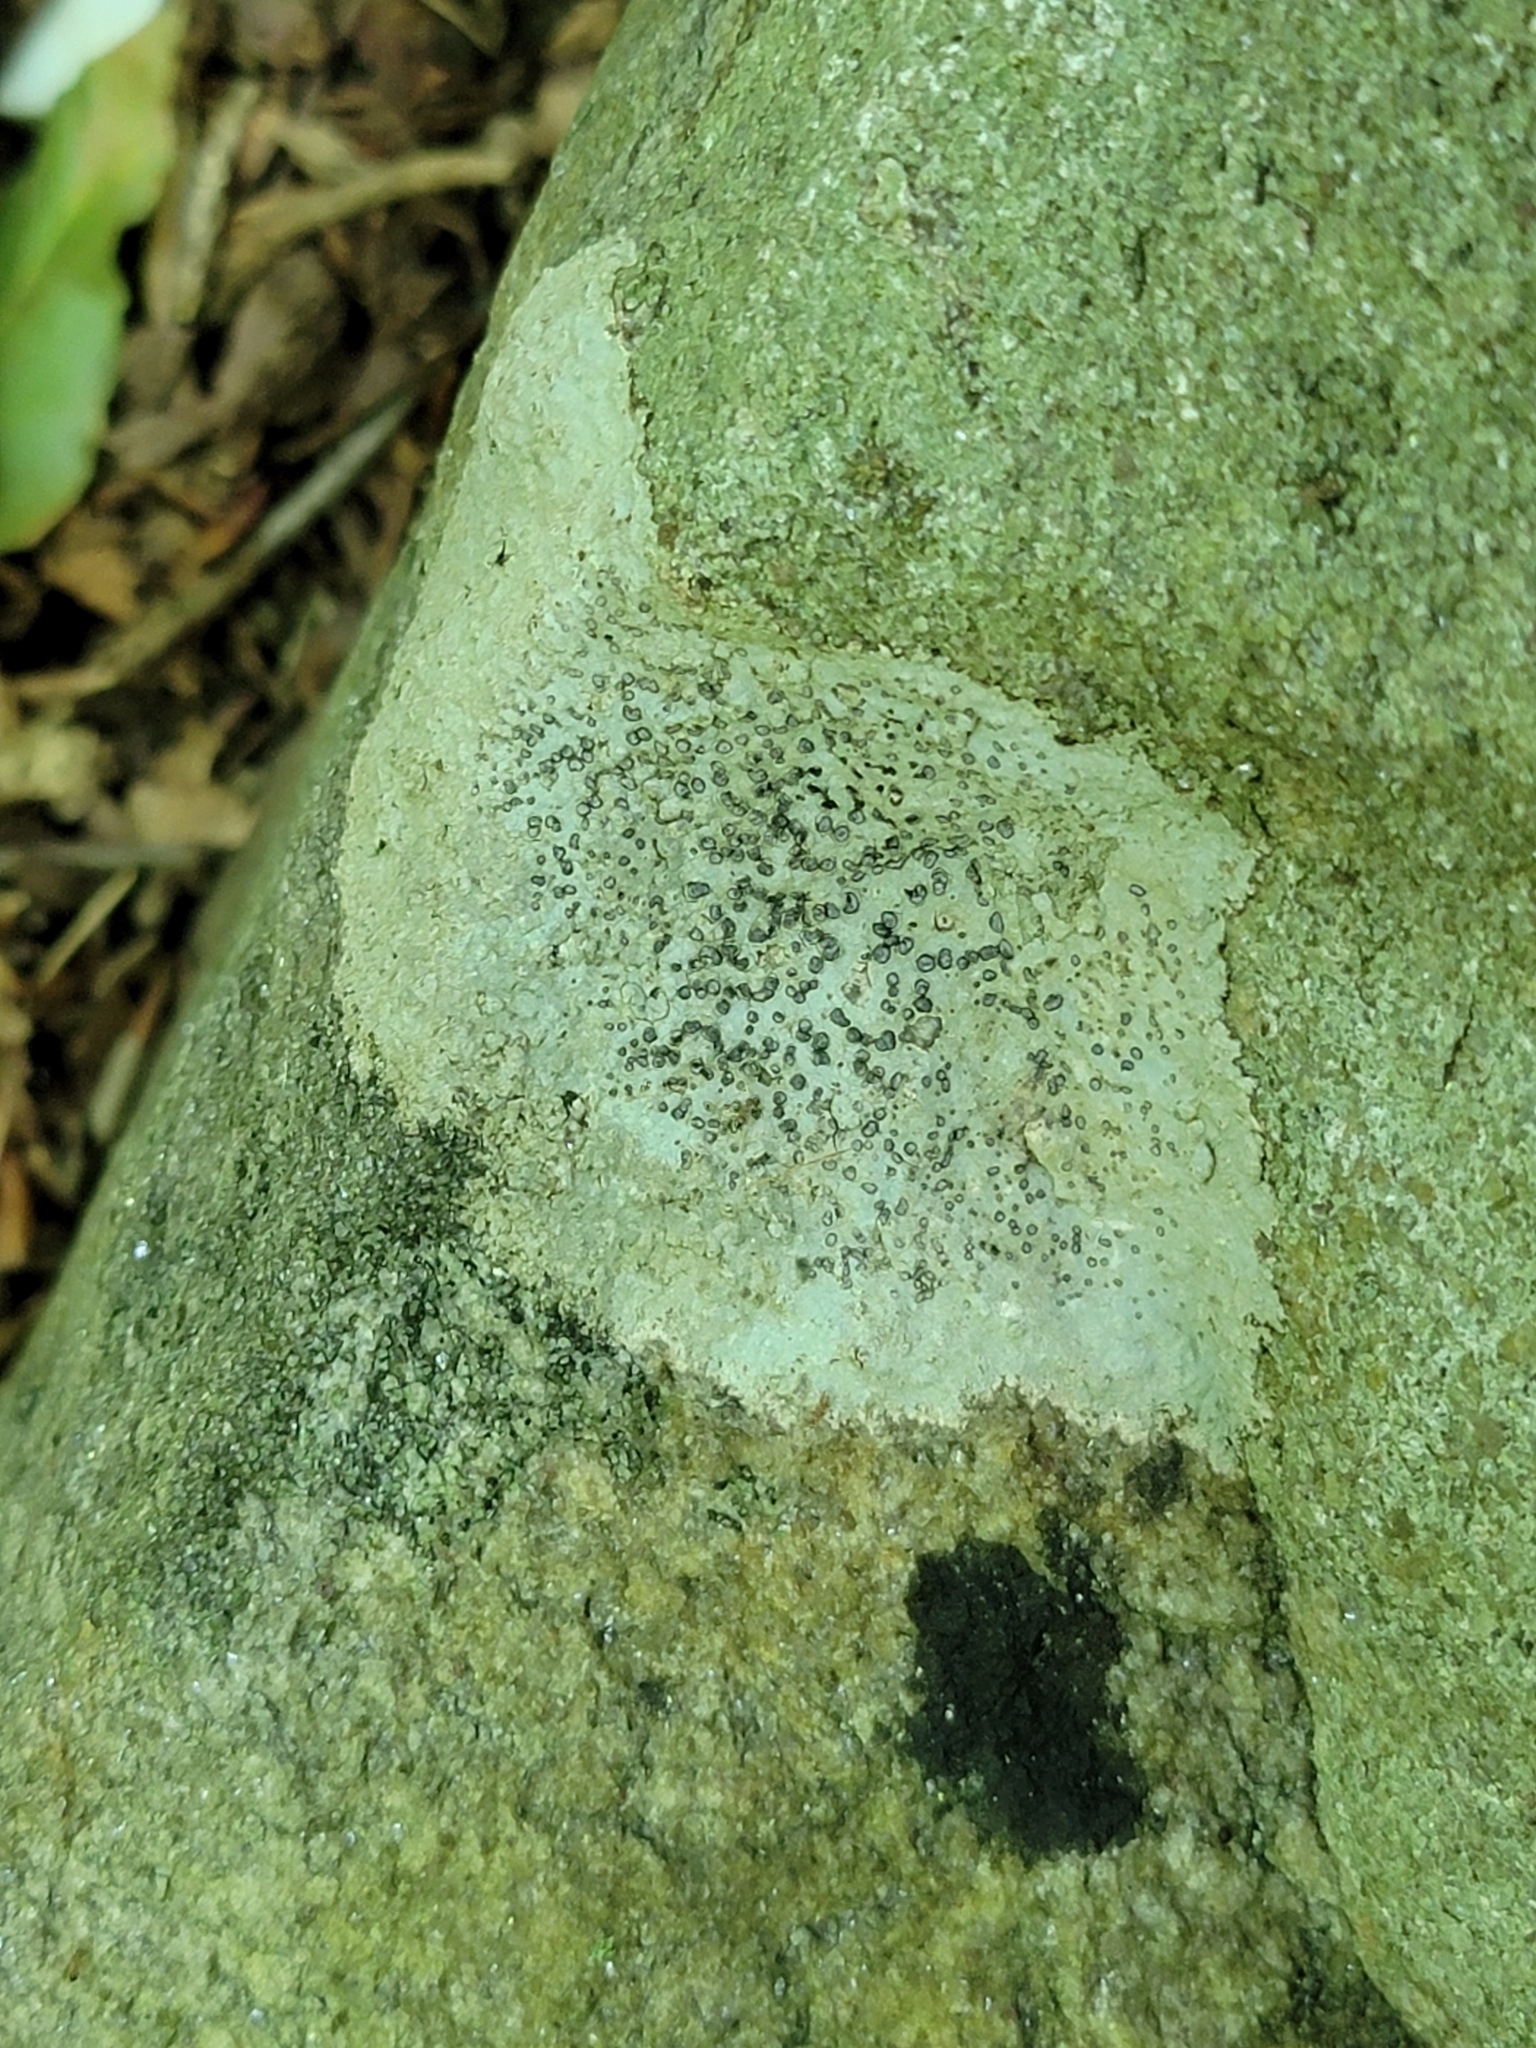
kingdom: Fungi
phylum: Ascomycota
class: Lecanoromycetes
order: Lecideales
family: Lecideaceae
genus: Porpidia
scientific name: Porpidia albocaerulescens
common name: Smokey-eyed boulder lichen
